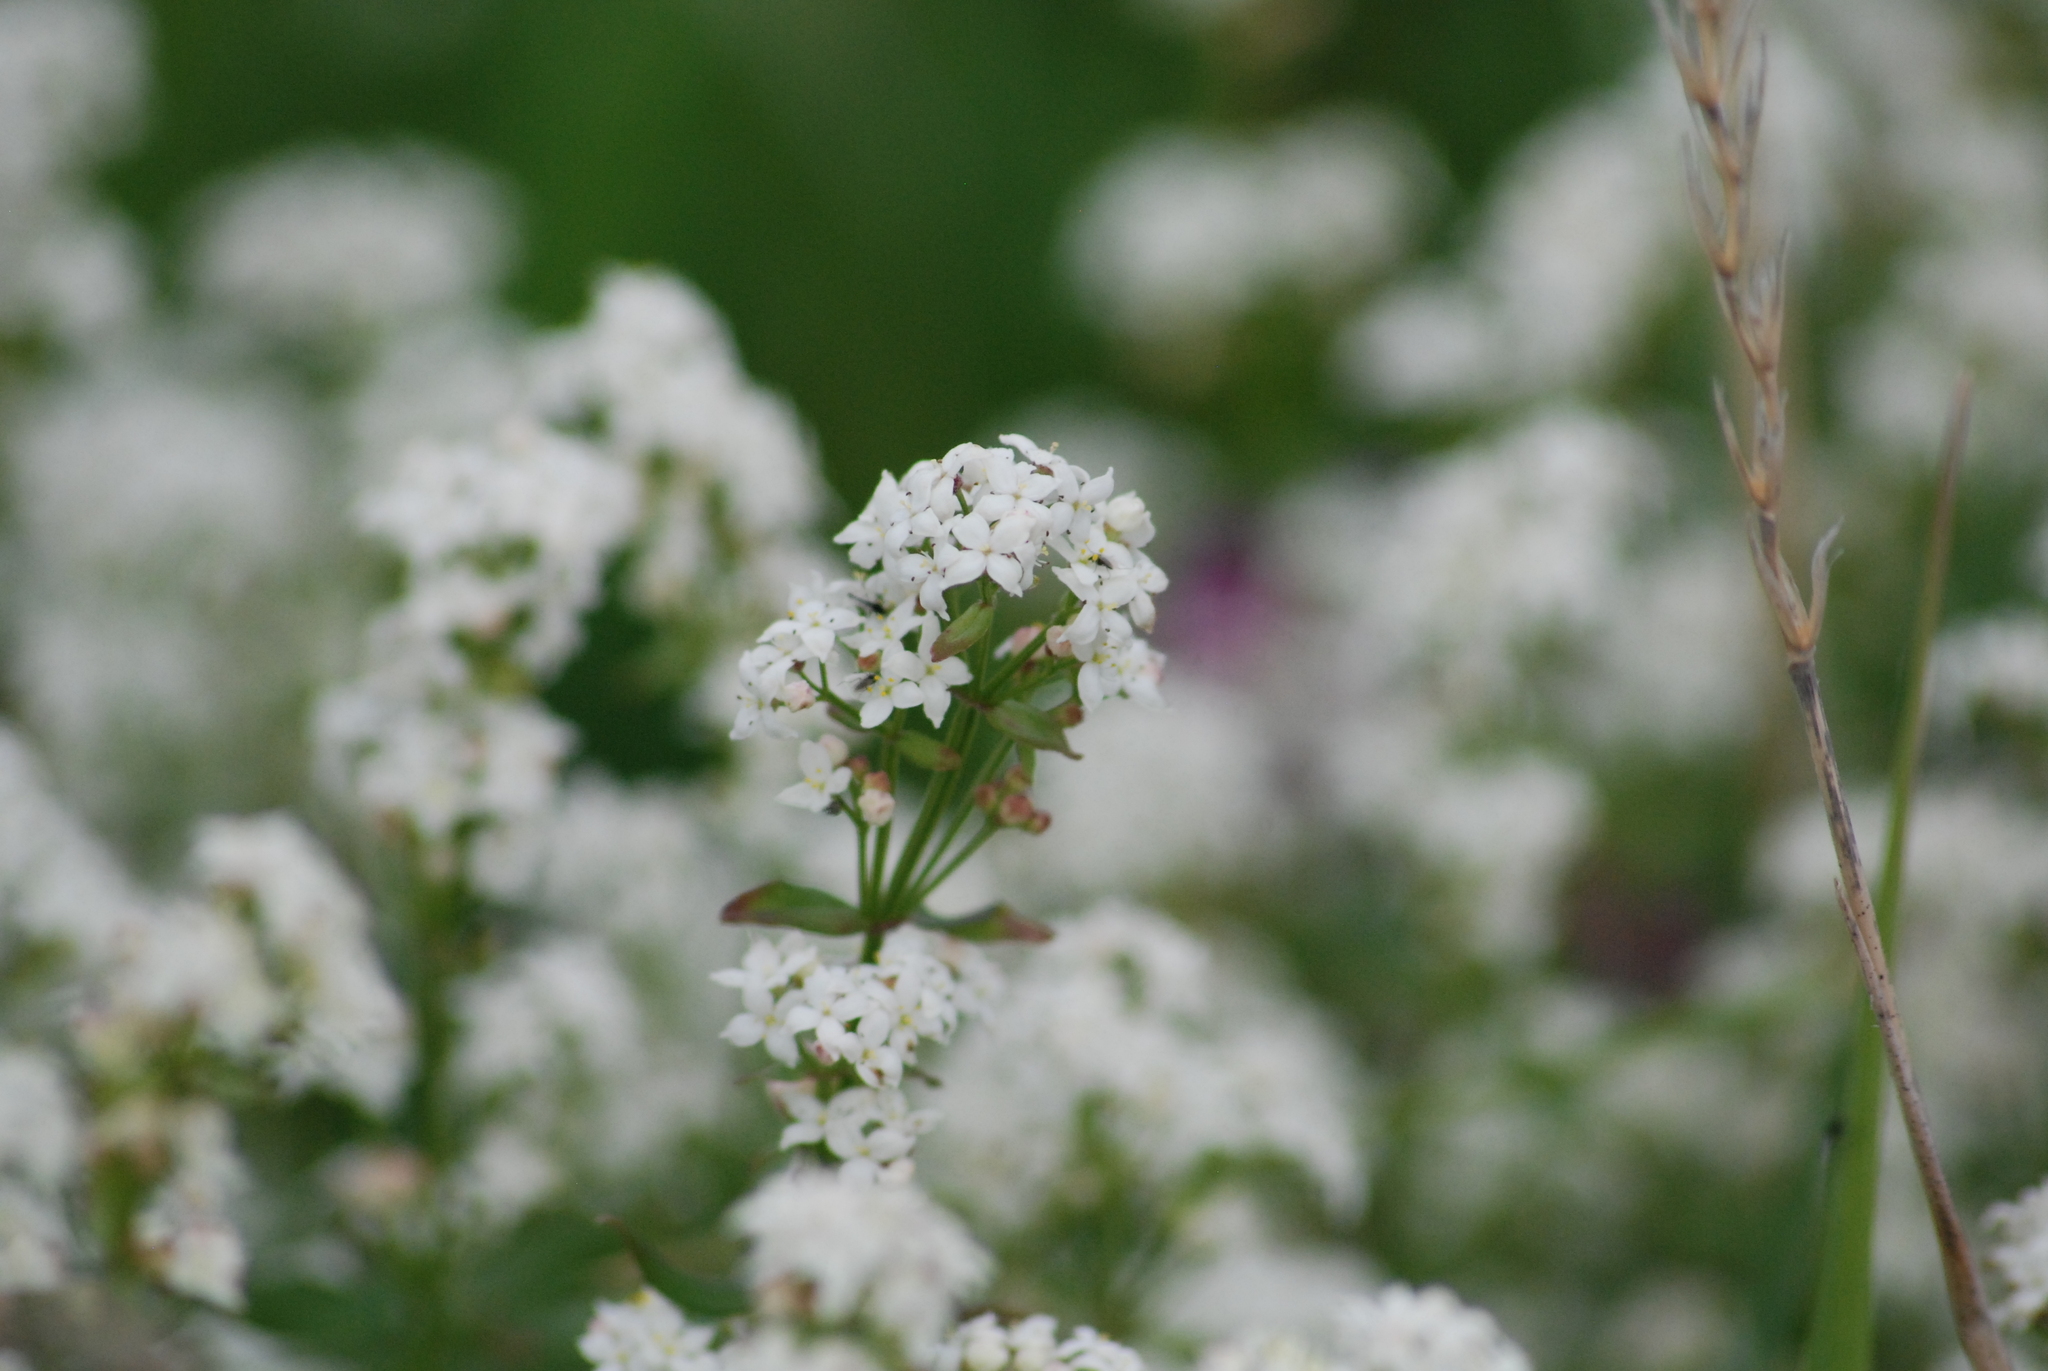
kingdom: Plantae
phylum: Tracheophyta
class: Magnoliopsida
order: Gentianales
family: Rubiaceae
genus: Galium
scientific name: Galium boreale
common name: Northern bedstraw
